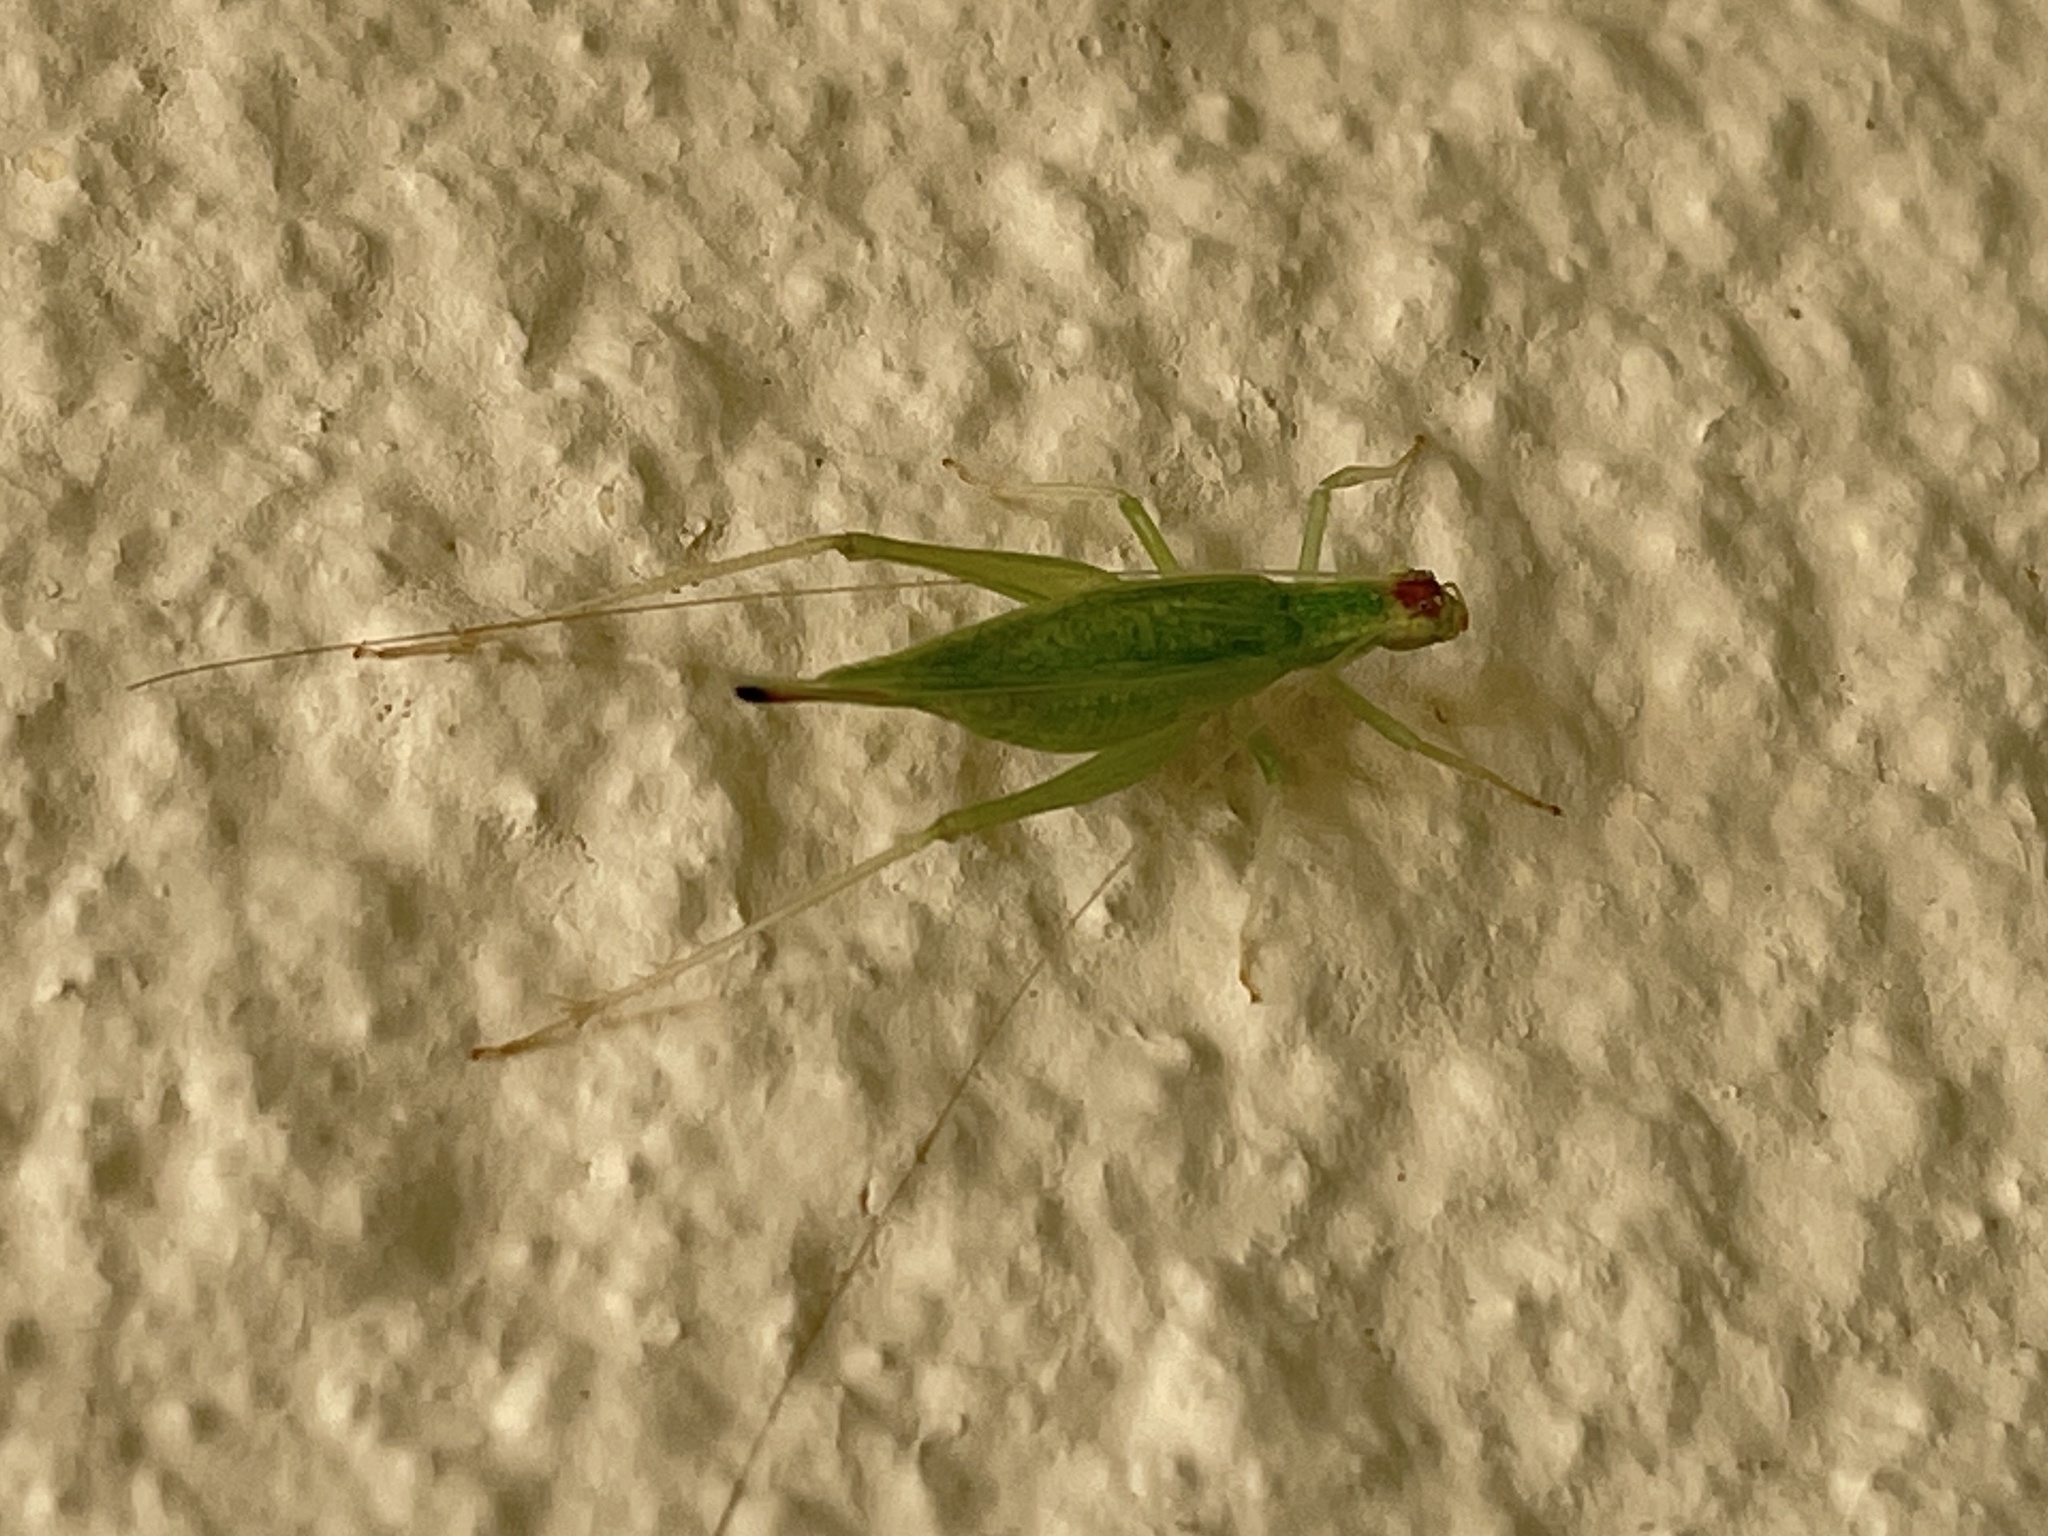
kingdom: Animalia
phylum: Arthropoda
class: Insecta
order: Orthoptera
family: Gryllidae
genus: Oecanthus
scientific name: Oecanthus fultoni
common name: Snowy tree cricket
